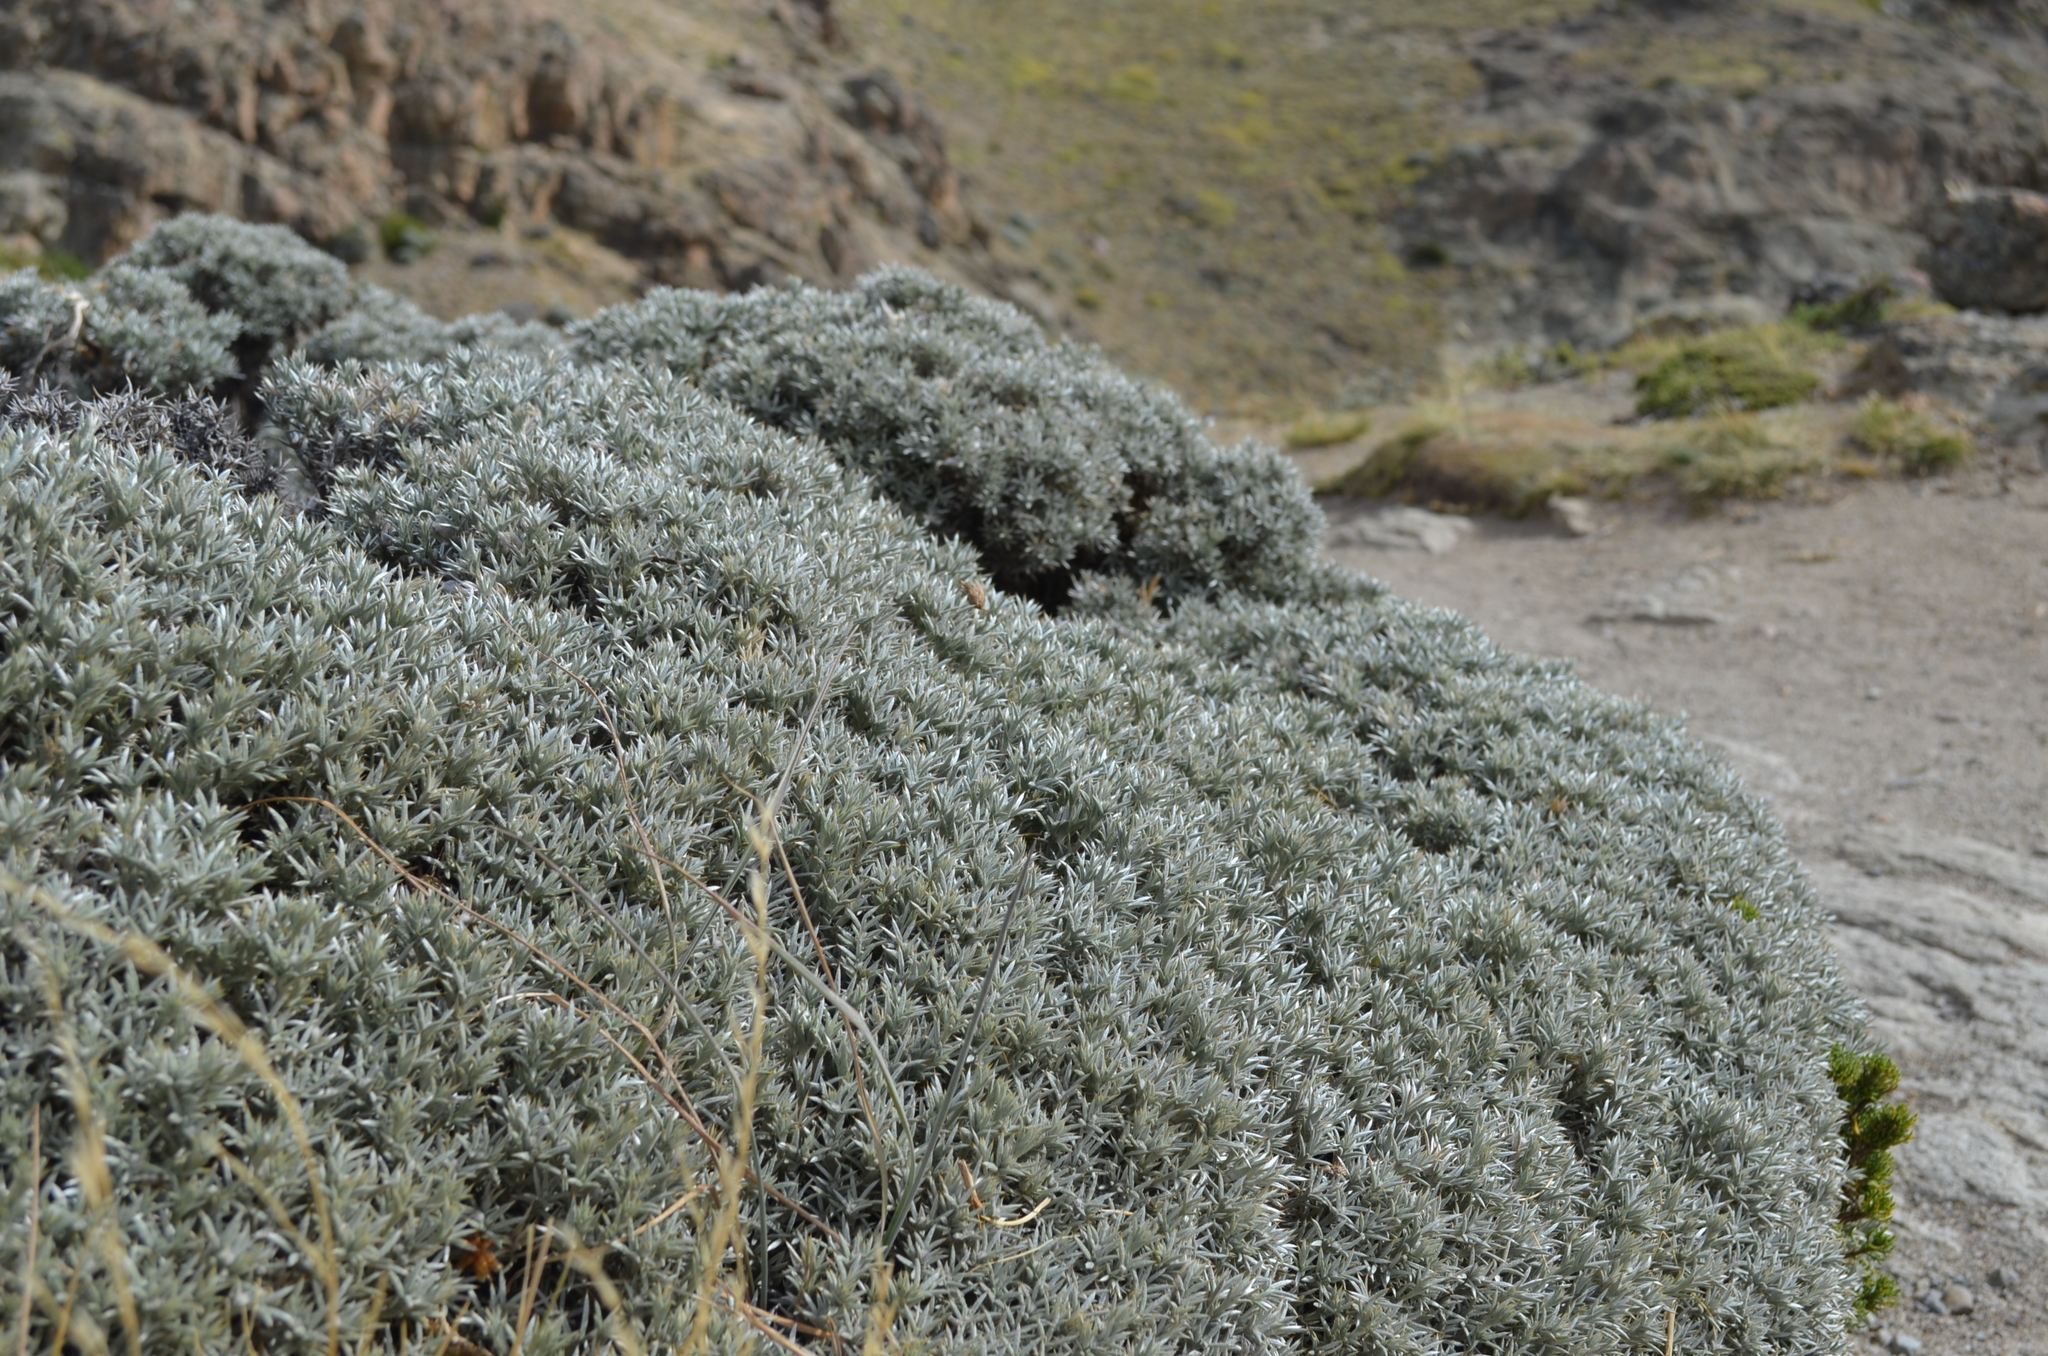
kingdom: Plantae
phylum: Tracheophyta
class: Magnoliopsida
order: Fabales
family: Fabaceae
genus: Anarthrophyllum
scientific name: Anarthrophyllum desideratum
